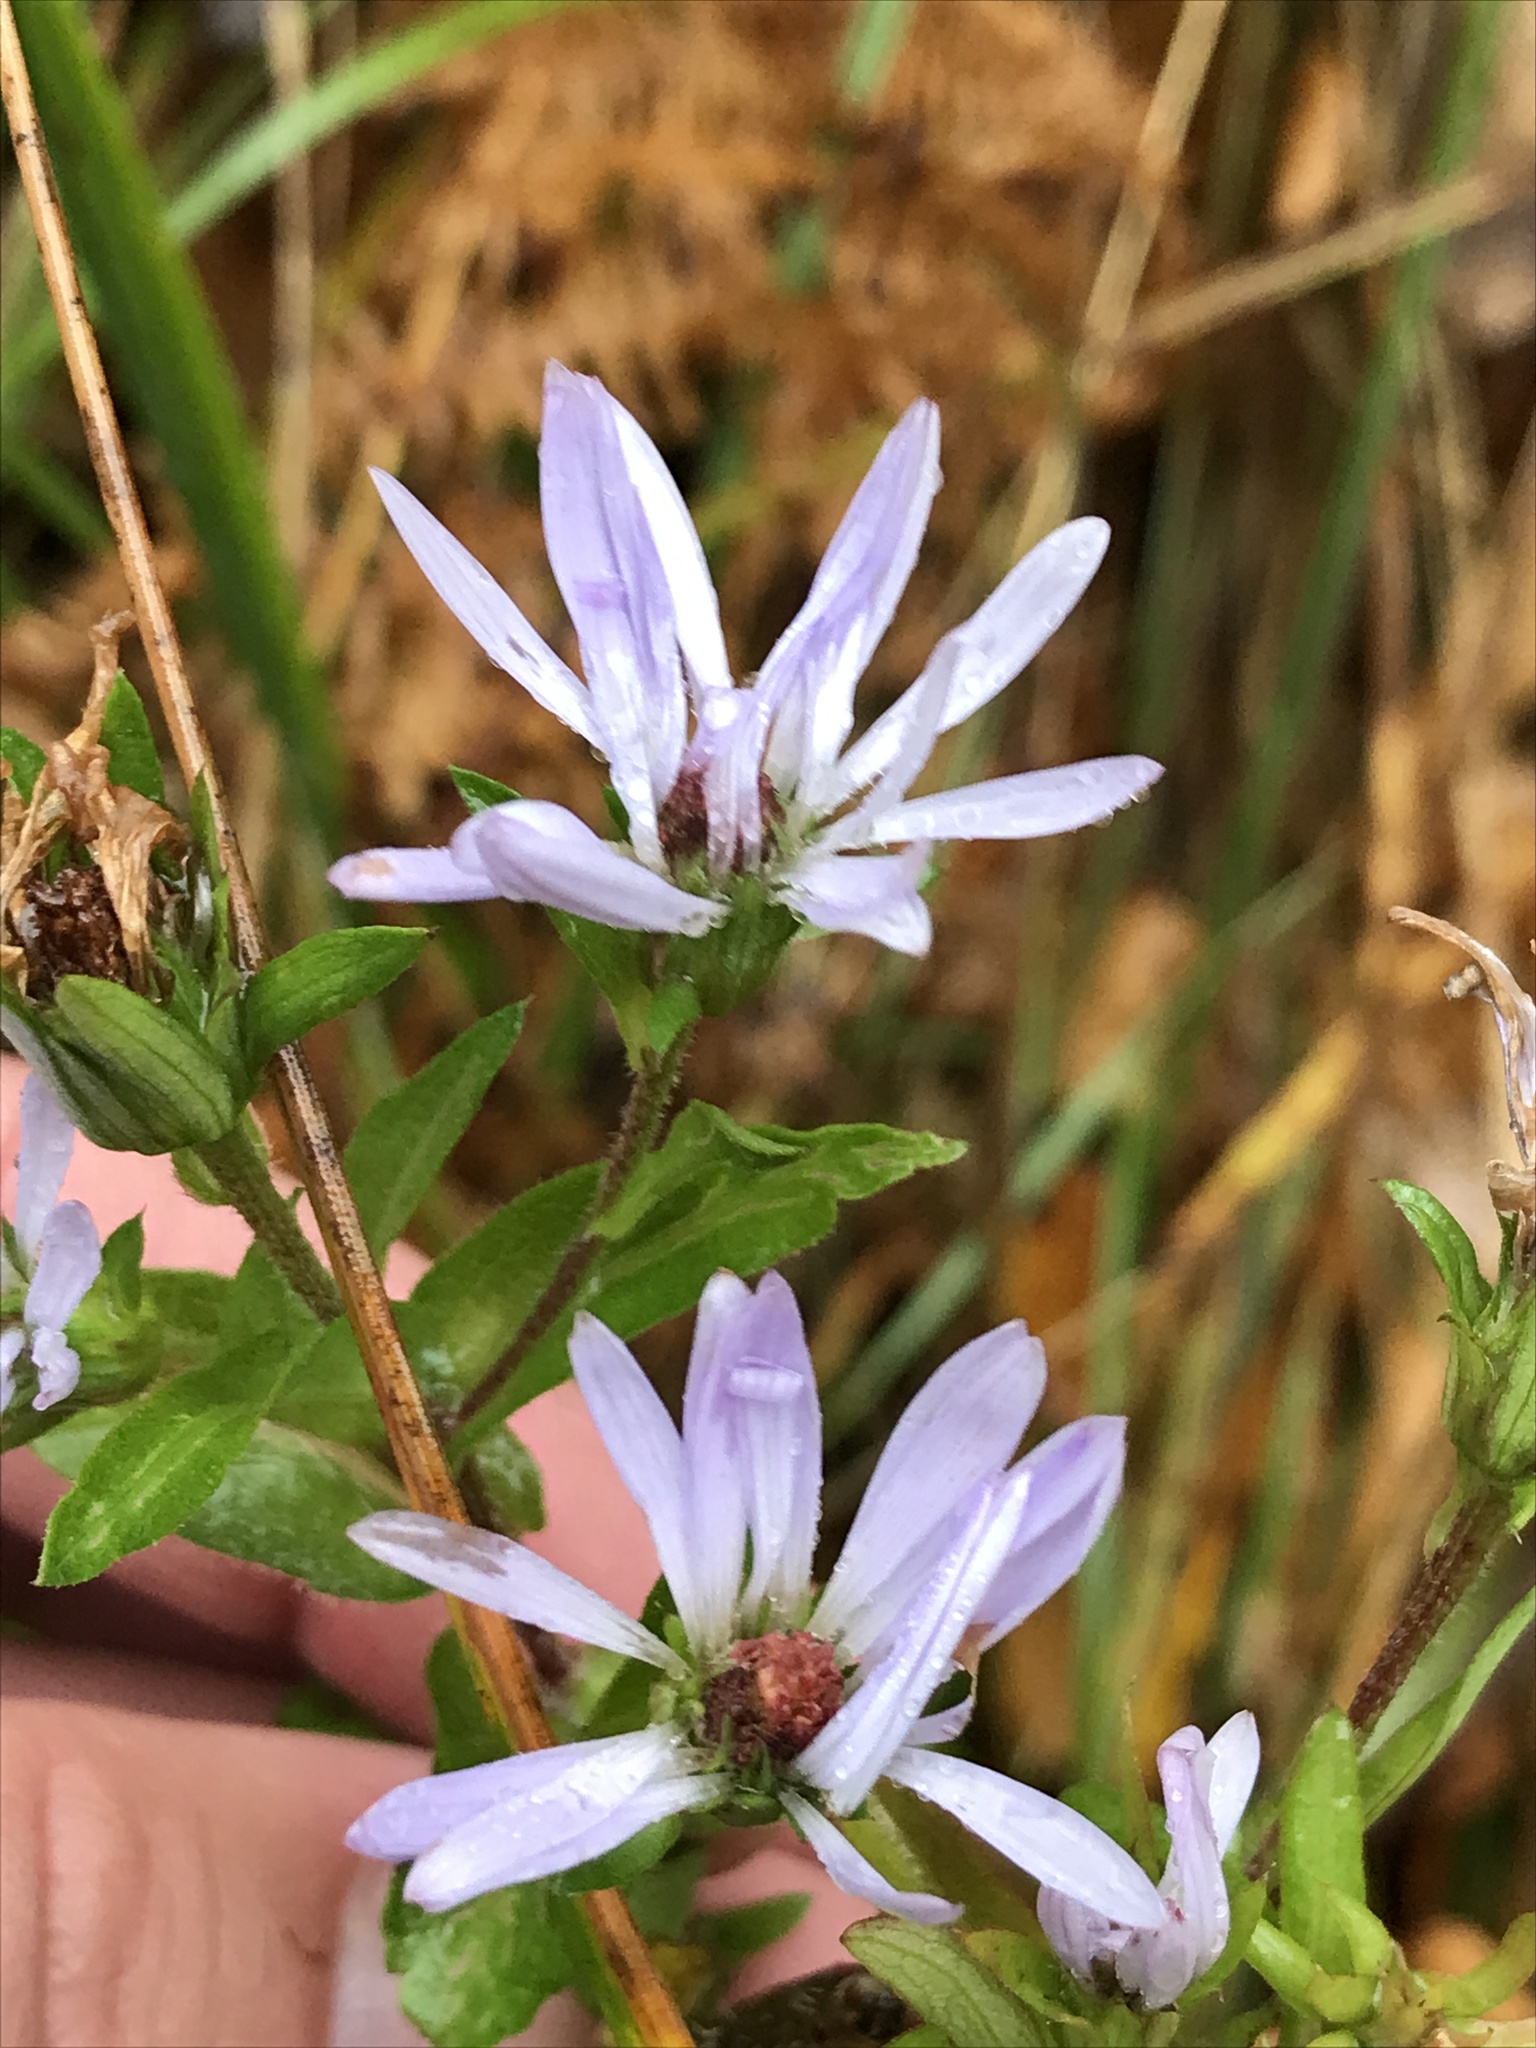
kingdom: Plantae
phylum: Tracheophyta
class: Magnoliopsida
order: Asterales
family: Asteraceae
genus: Symphyotrichum
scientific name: Symphyotrichum puniceum
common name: Bog aster
